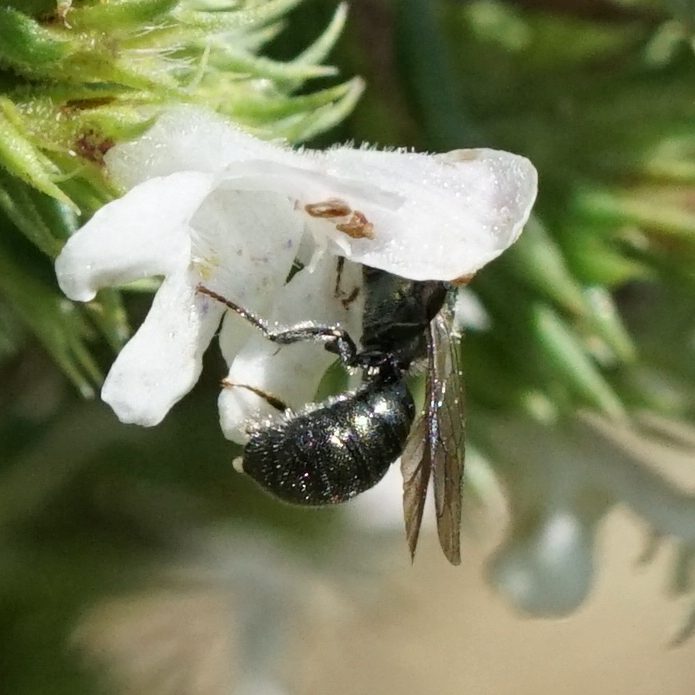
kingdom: Animalia
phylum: Arthropoda
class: Insecta
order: Hymenoptera
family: Apidae
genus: Ceratina
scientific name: Ceratina calcarata
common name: Spurred carpenter bee
